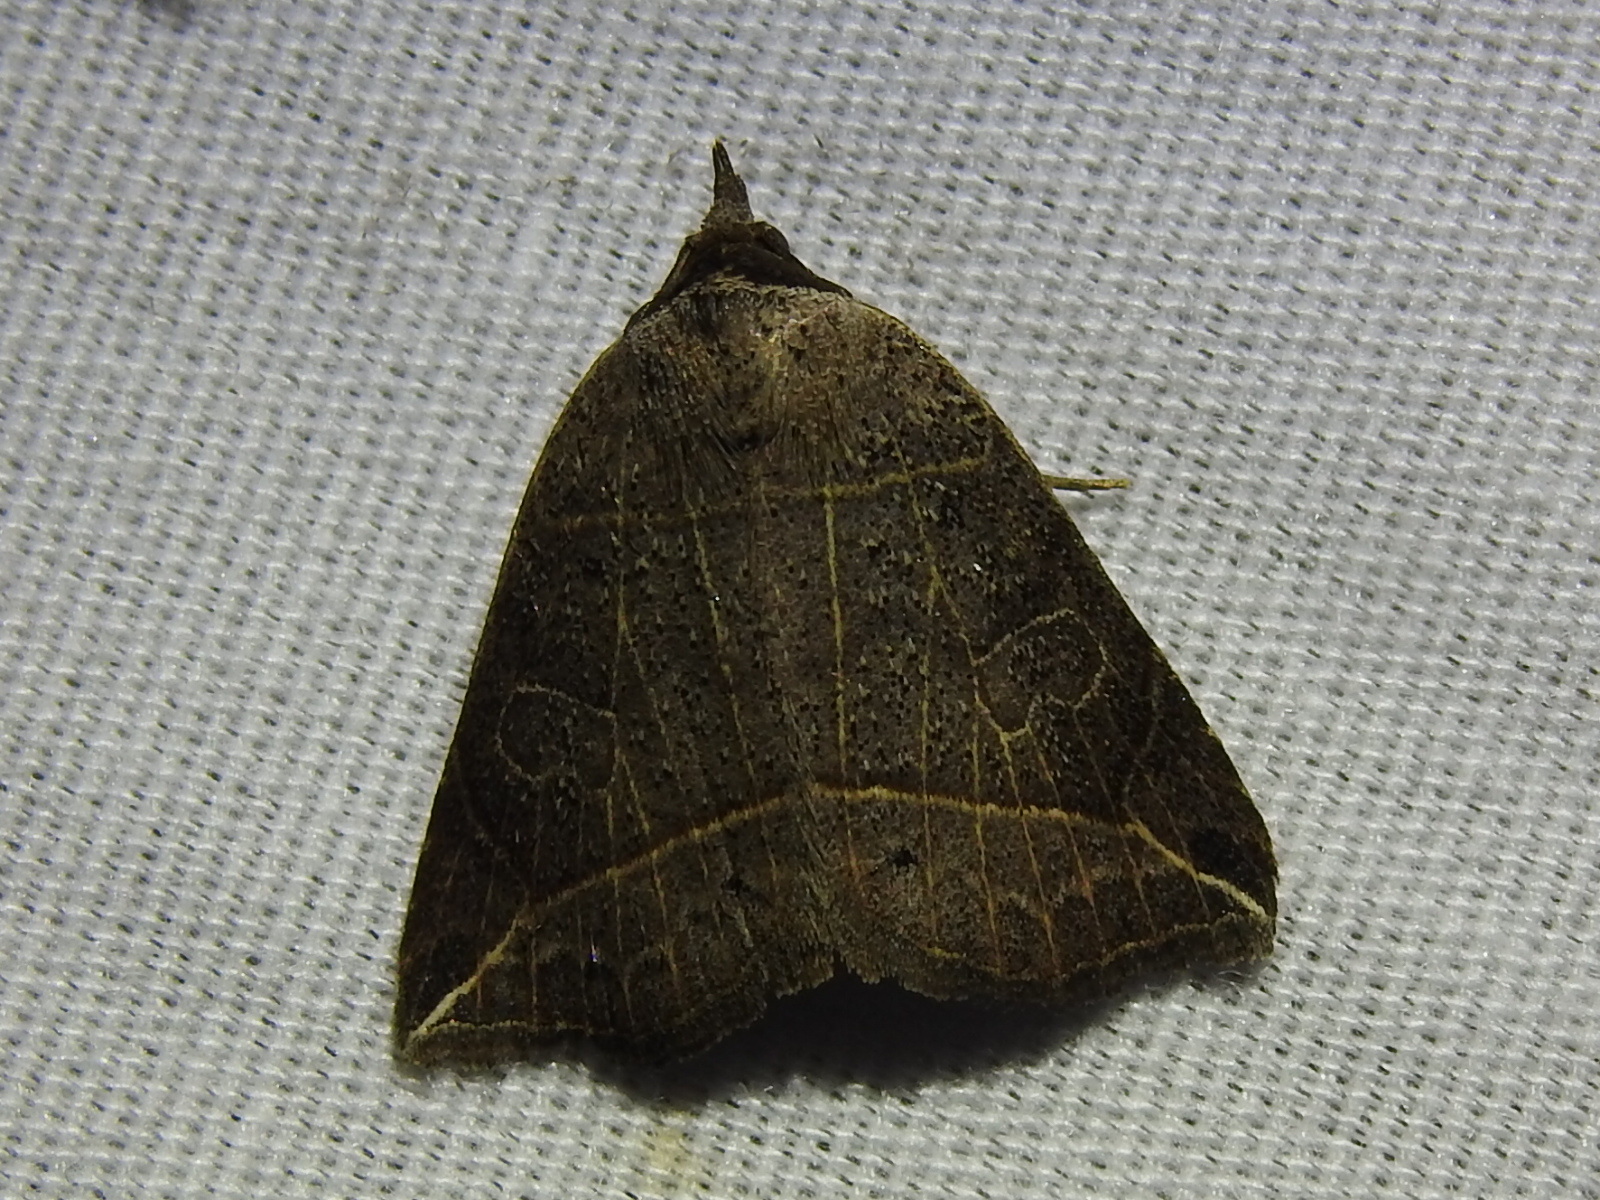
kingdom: Animalia
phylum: Arthropoda
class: Insecta
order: Lepidoptera
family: Erebidae
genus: Isogona
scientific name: Isogona tenuis
